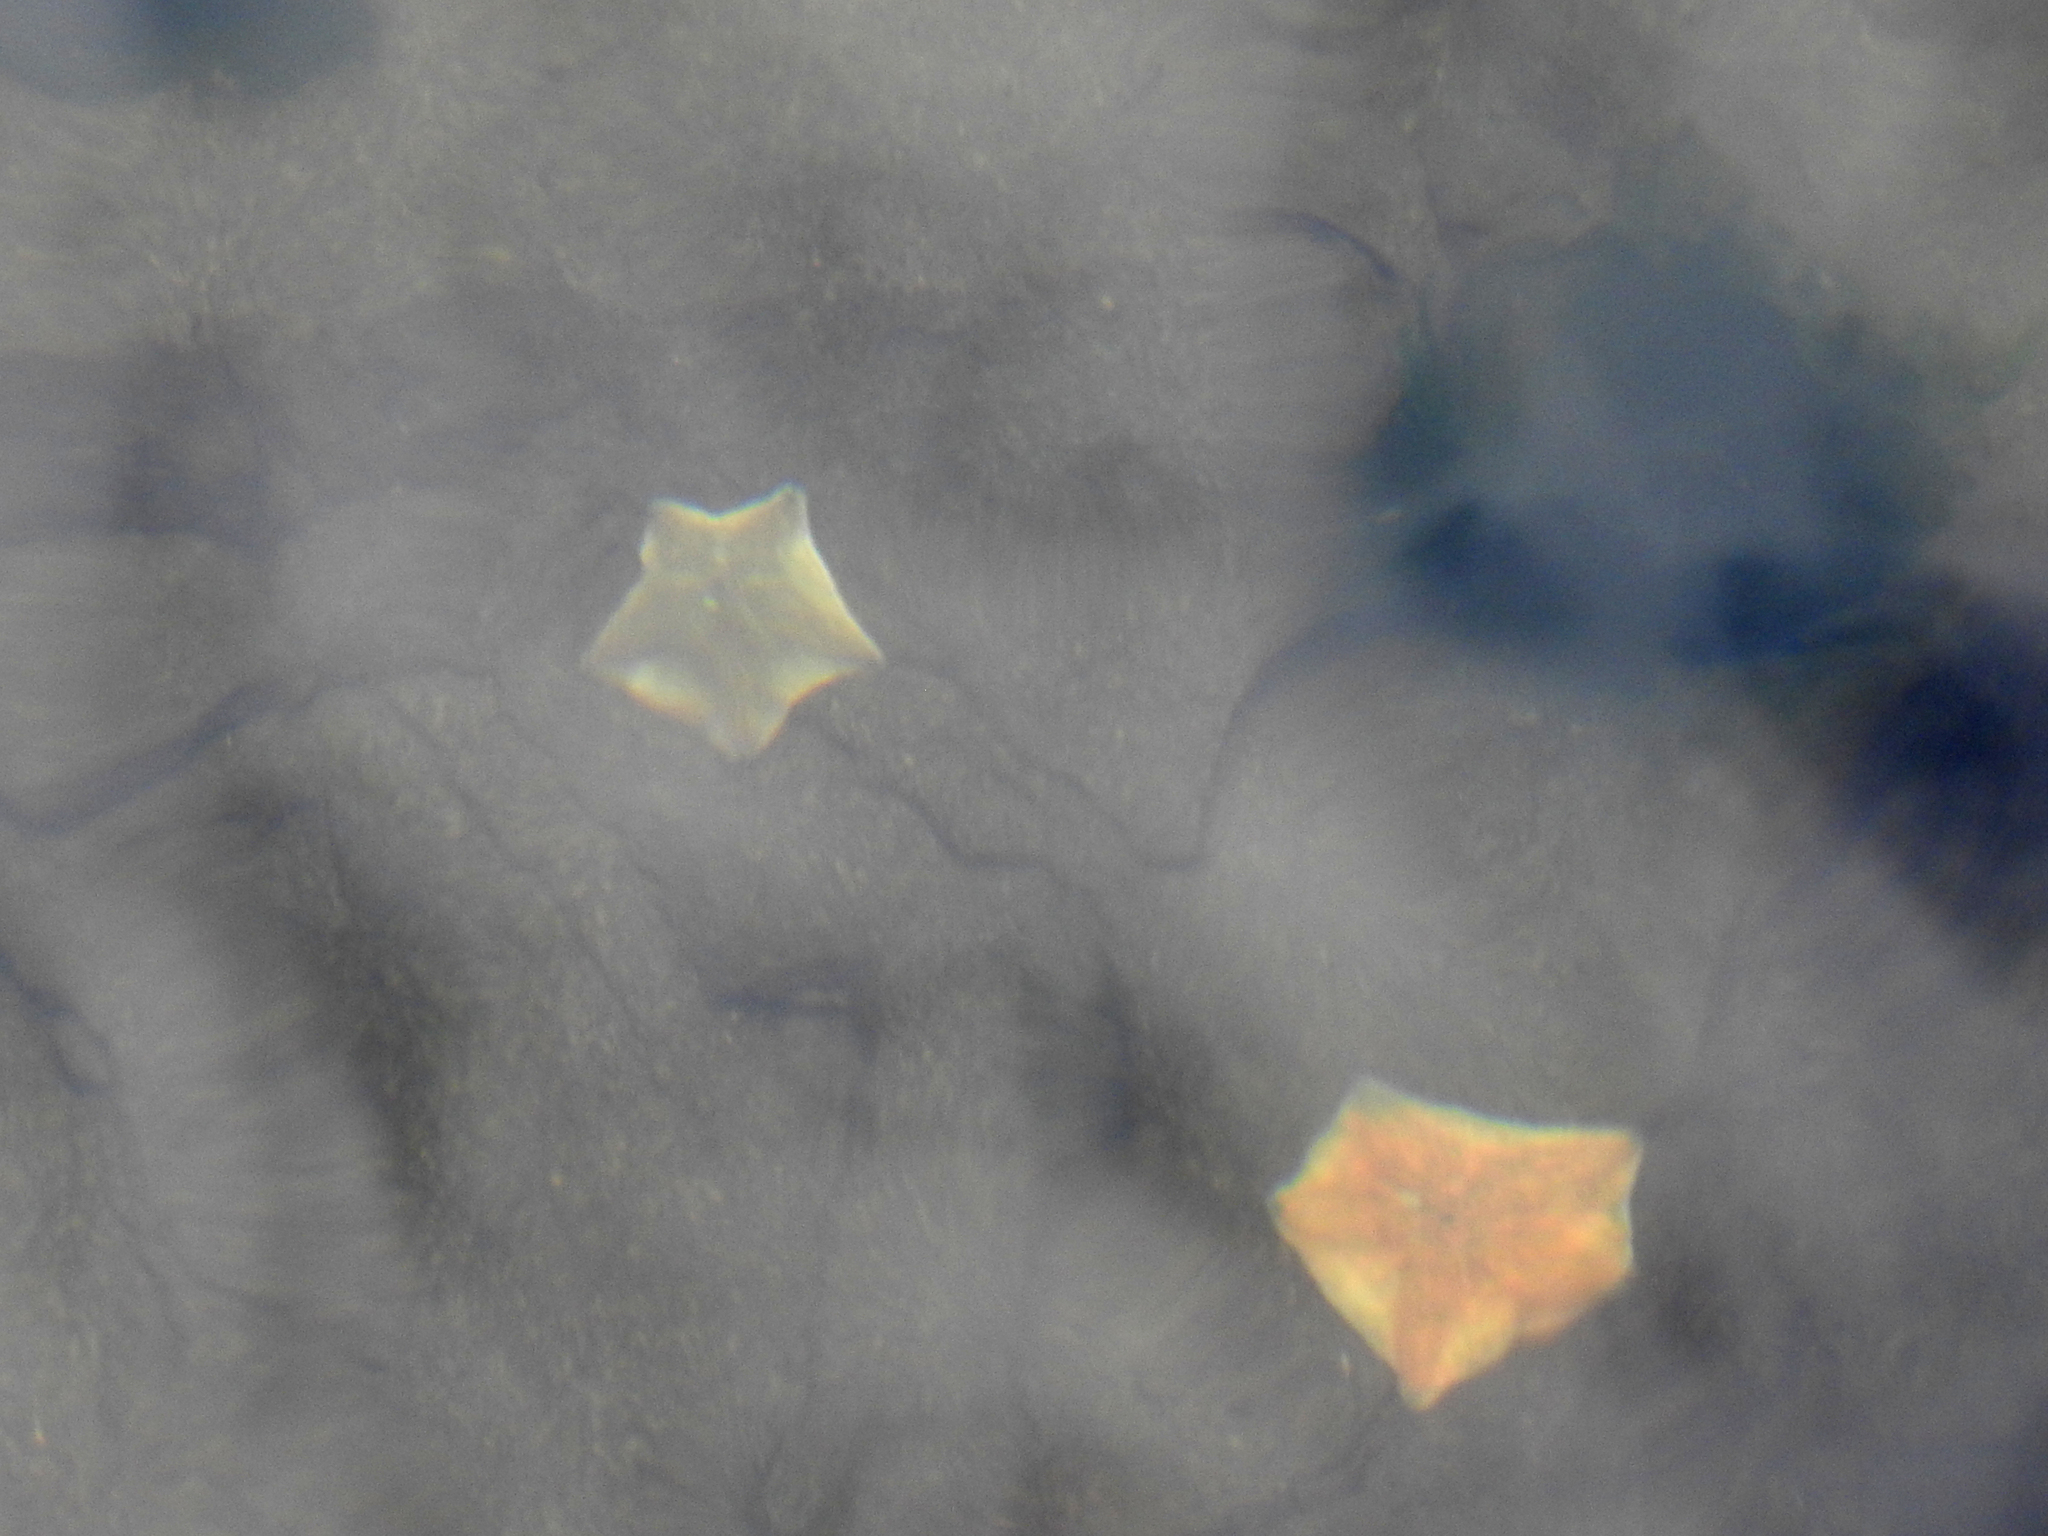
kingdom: Animalia
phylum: Echinodermata
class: Asteroidea
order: Valvatida
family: Asterinidae
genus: Patiriella
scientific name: Patiriella regularis
